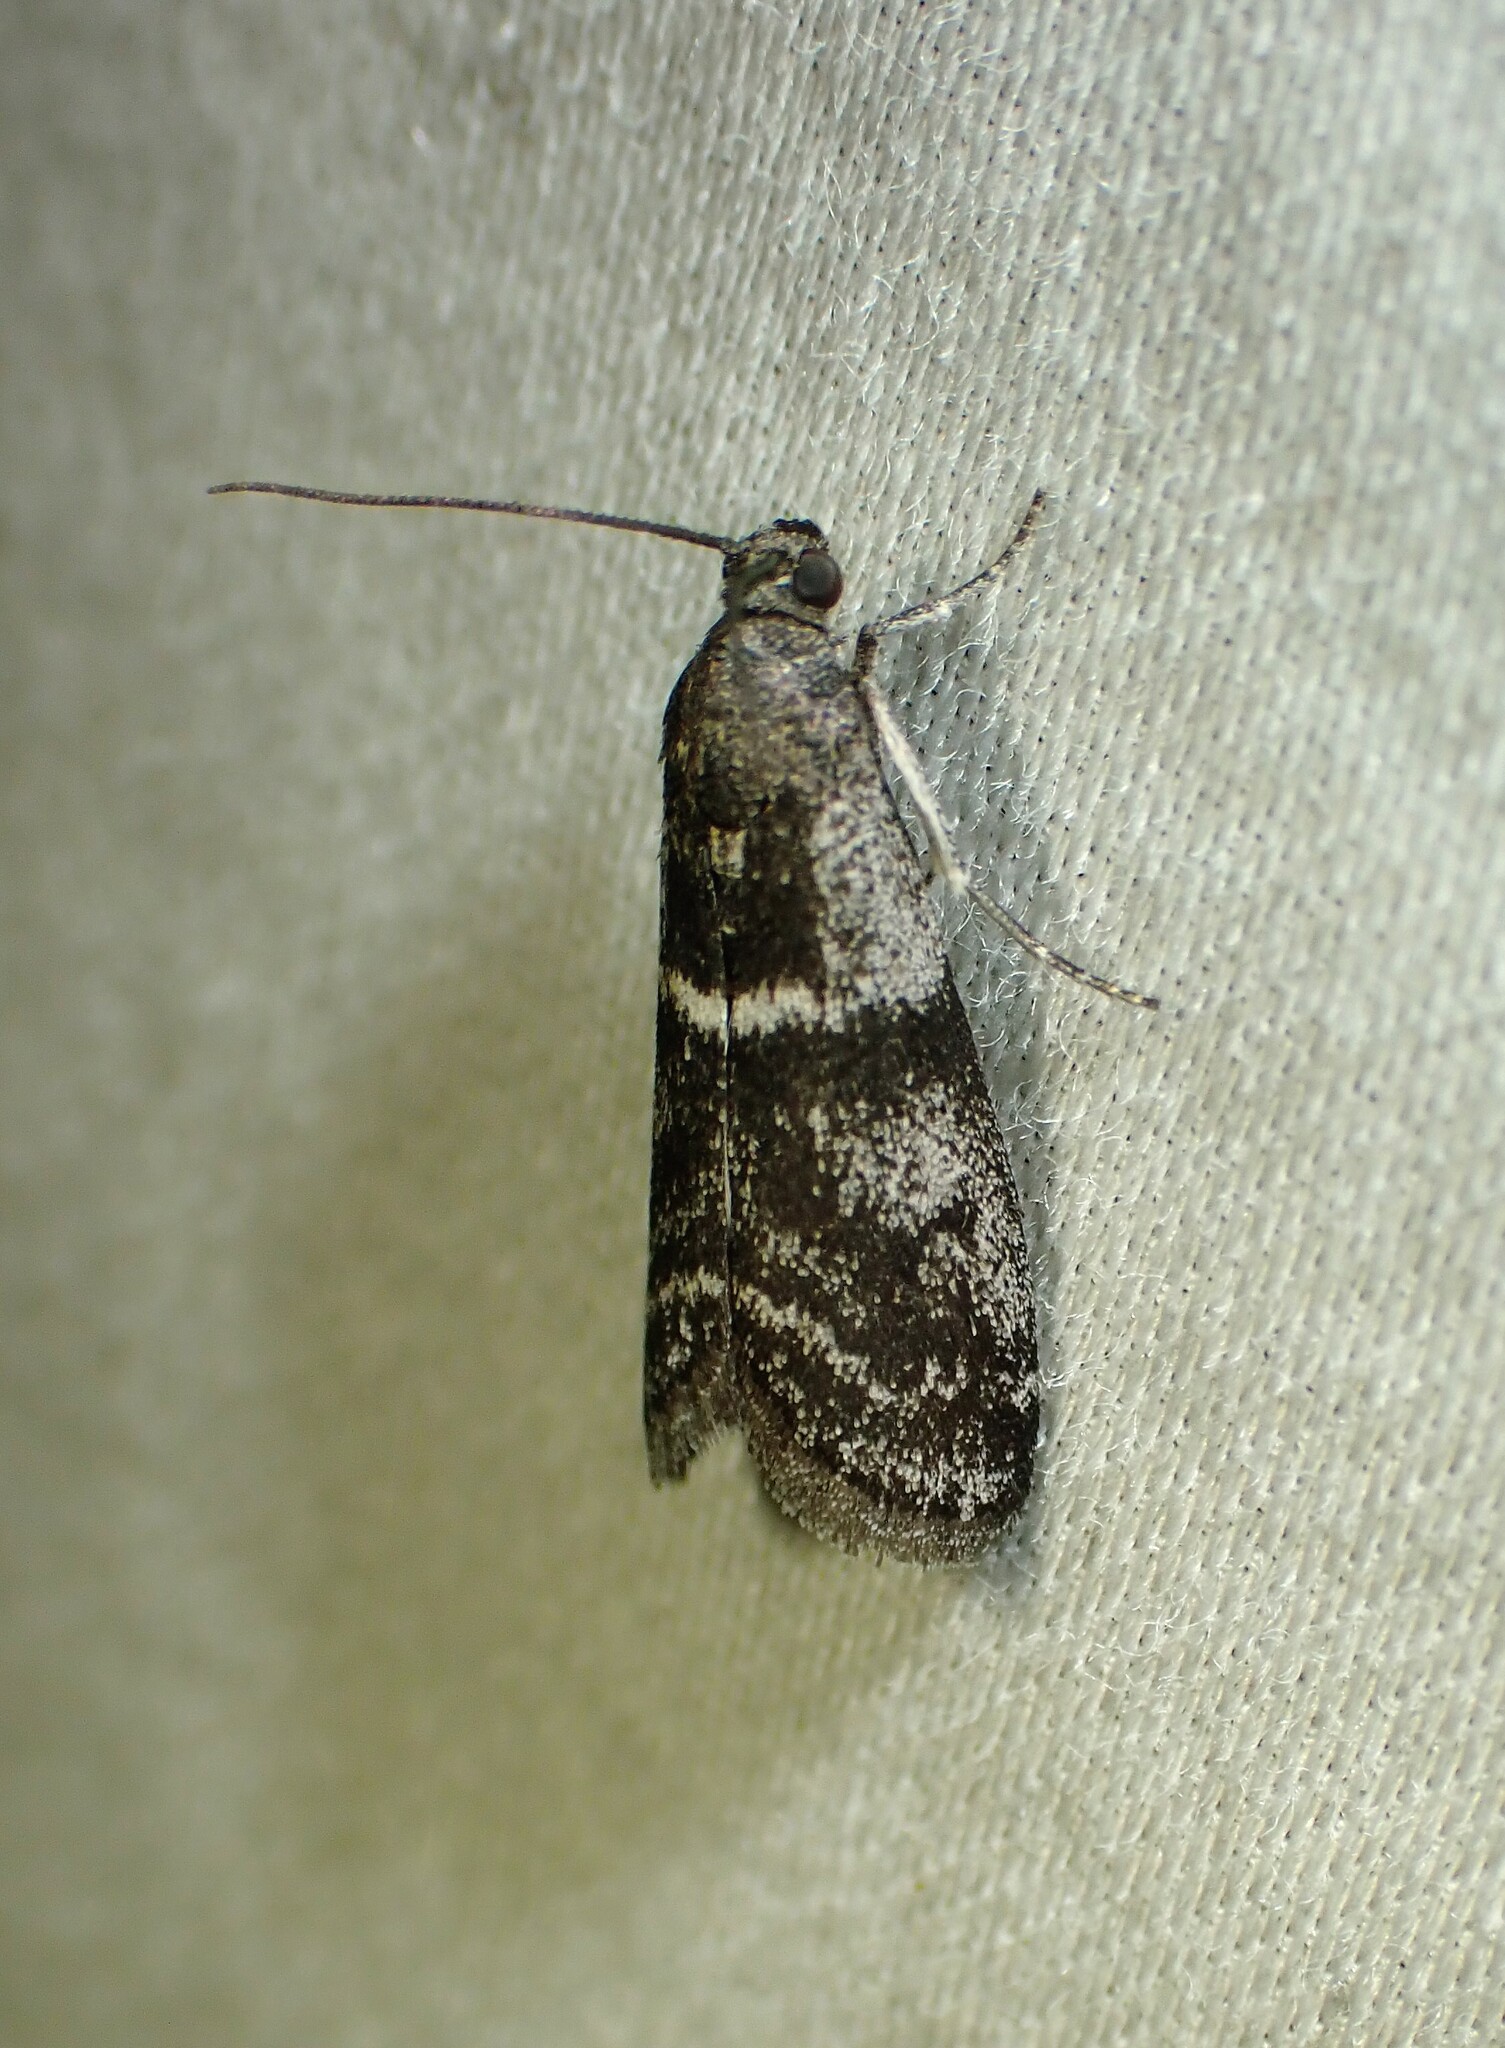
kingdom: Animalia
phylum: Arthropoda
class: Insecta
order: Lepidoptera
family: Pyralidae
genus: Apomyelois
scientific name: Apomyelois bistriatella
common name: Heath knot-horn
